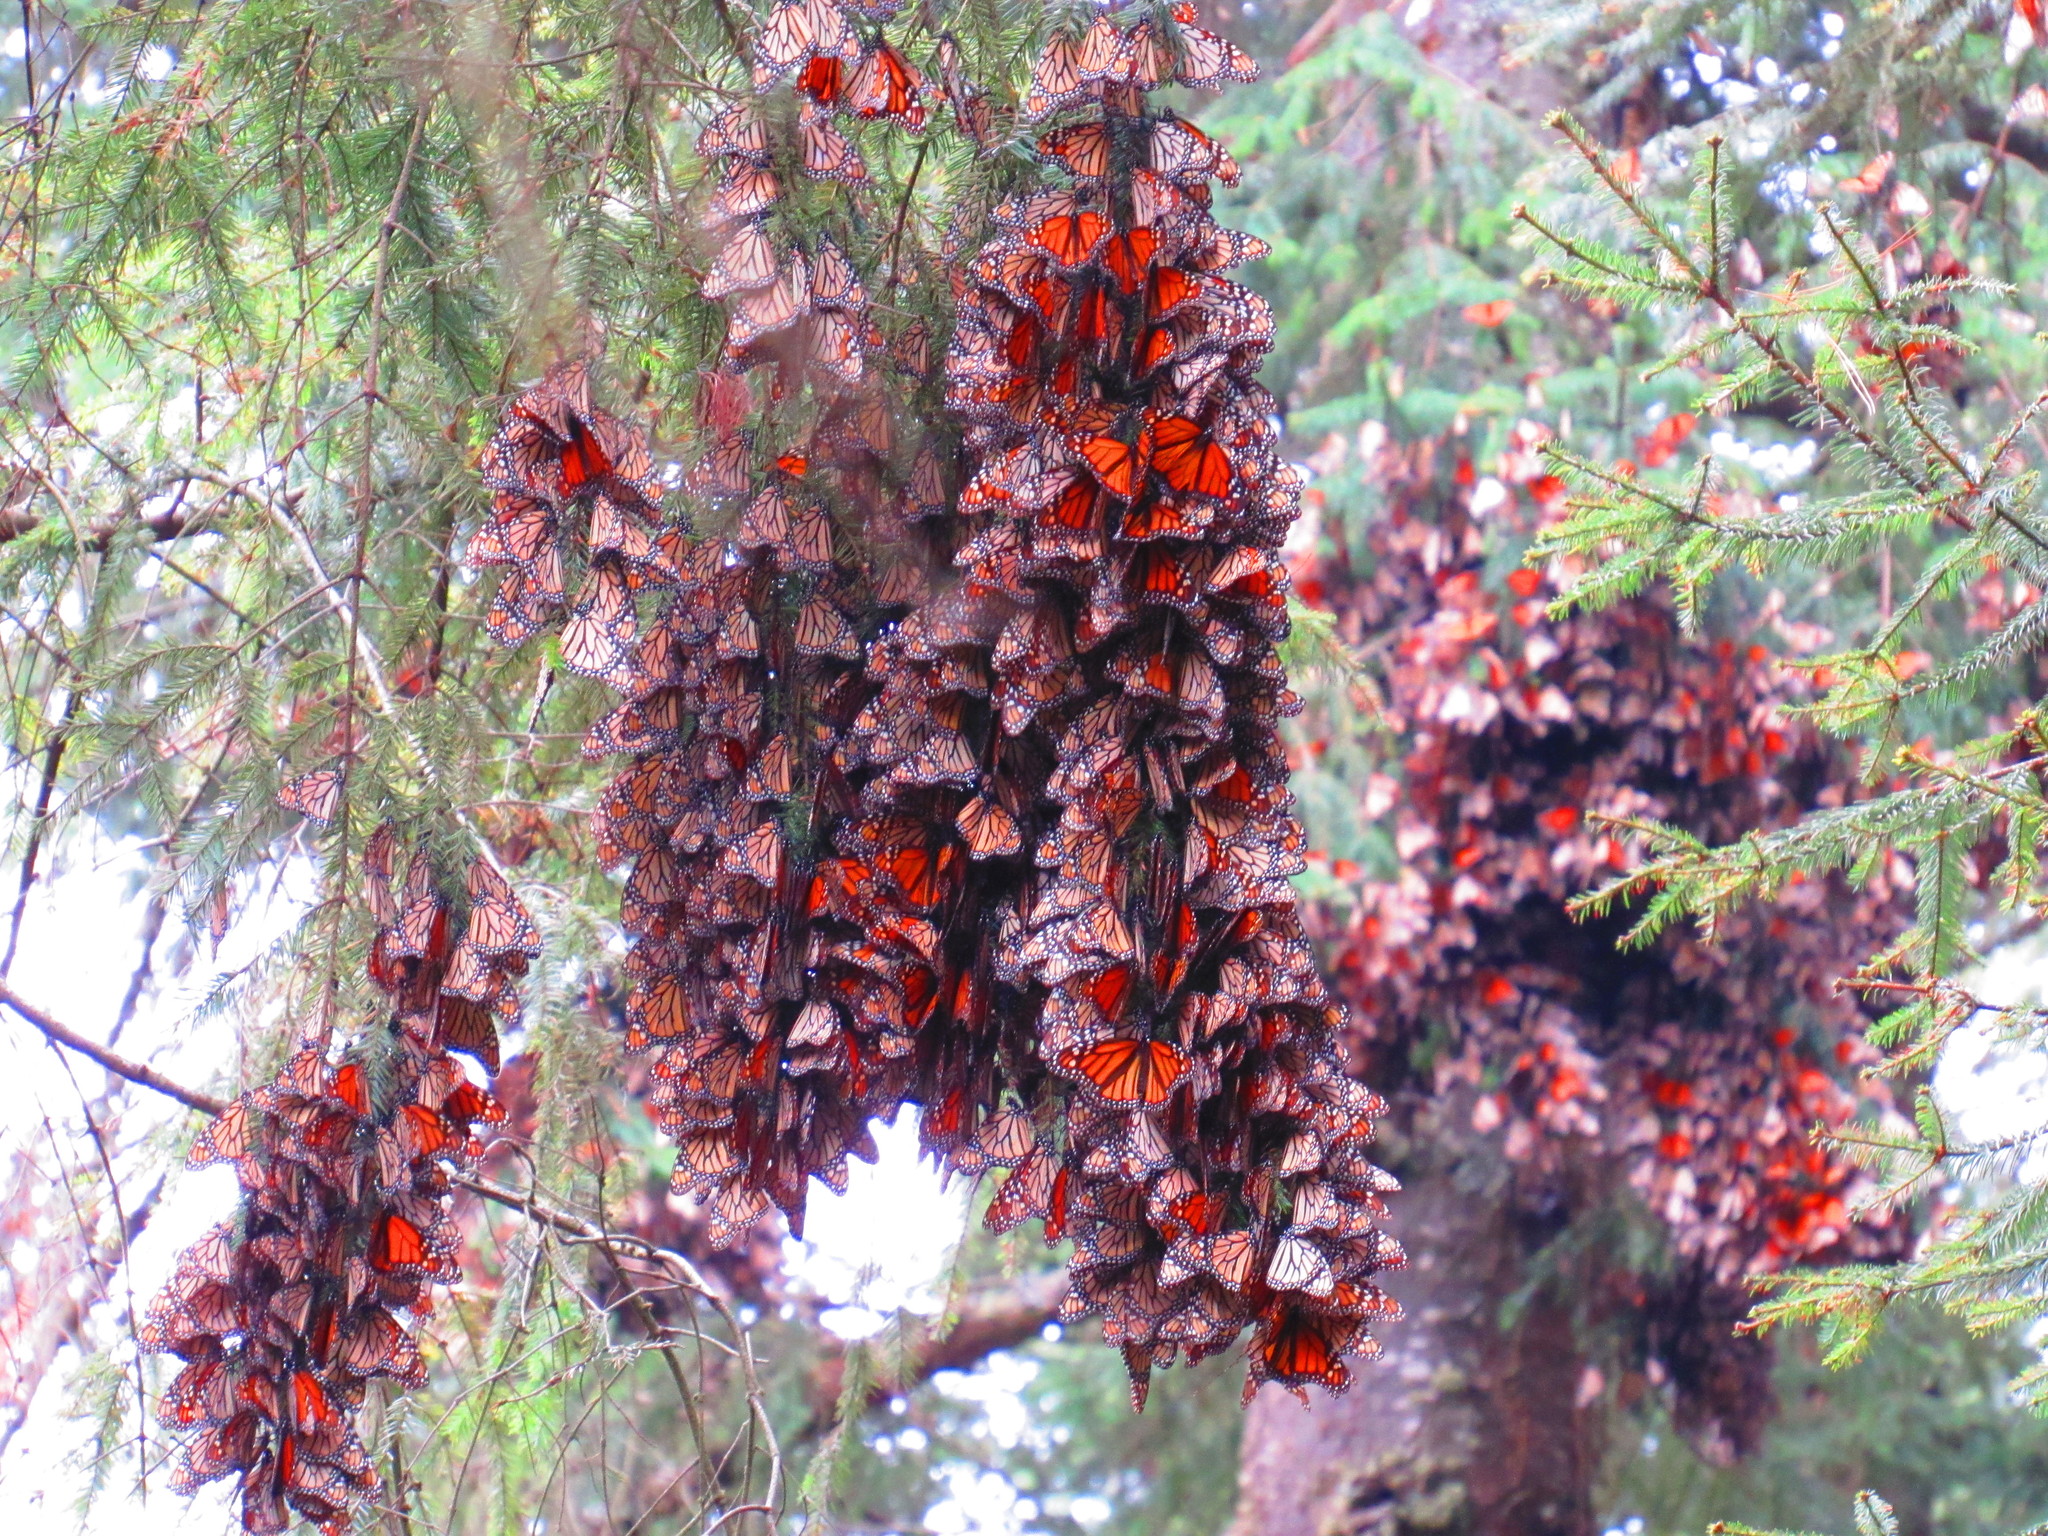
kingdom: Animalia
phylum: Arthropoda
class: Insecta
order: Lepidoptera
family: Nymphalidae
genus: Danaus
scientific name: Danaus plexippus
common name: Monarch
